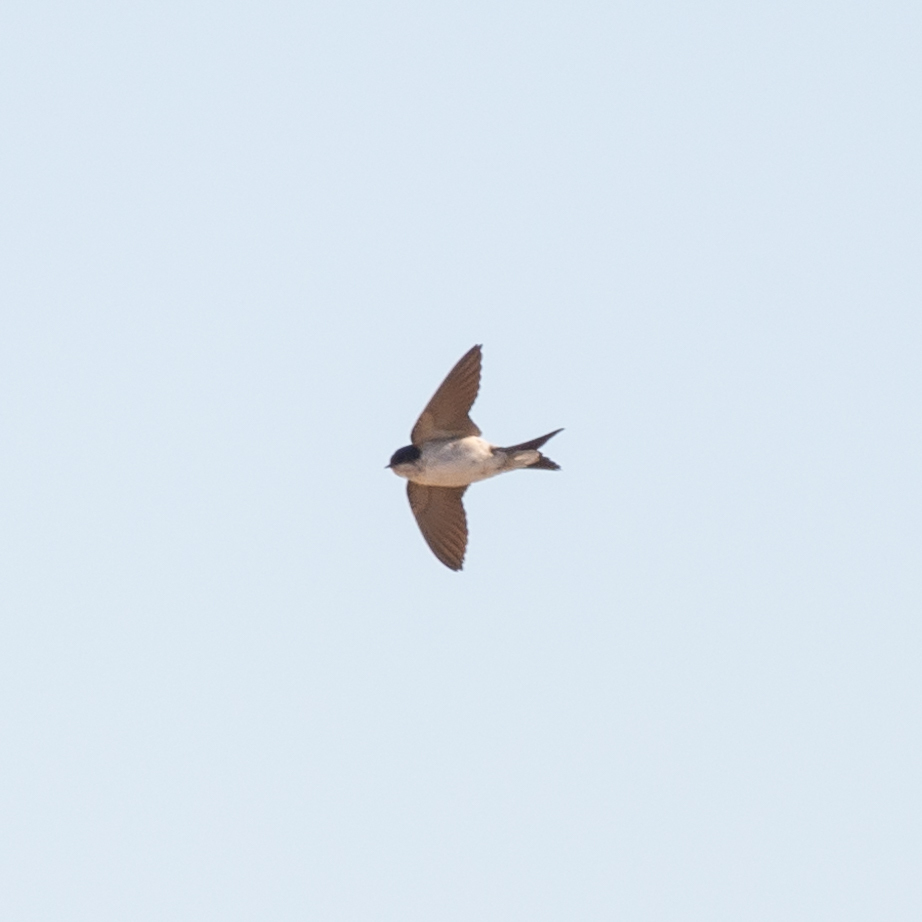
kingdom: Animalia
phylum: Chordata
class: Aves
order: Passeriformes
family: Hirundinidae
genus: Delichon
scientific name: Delichon urbicum
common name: Common house martin
